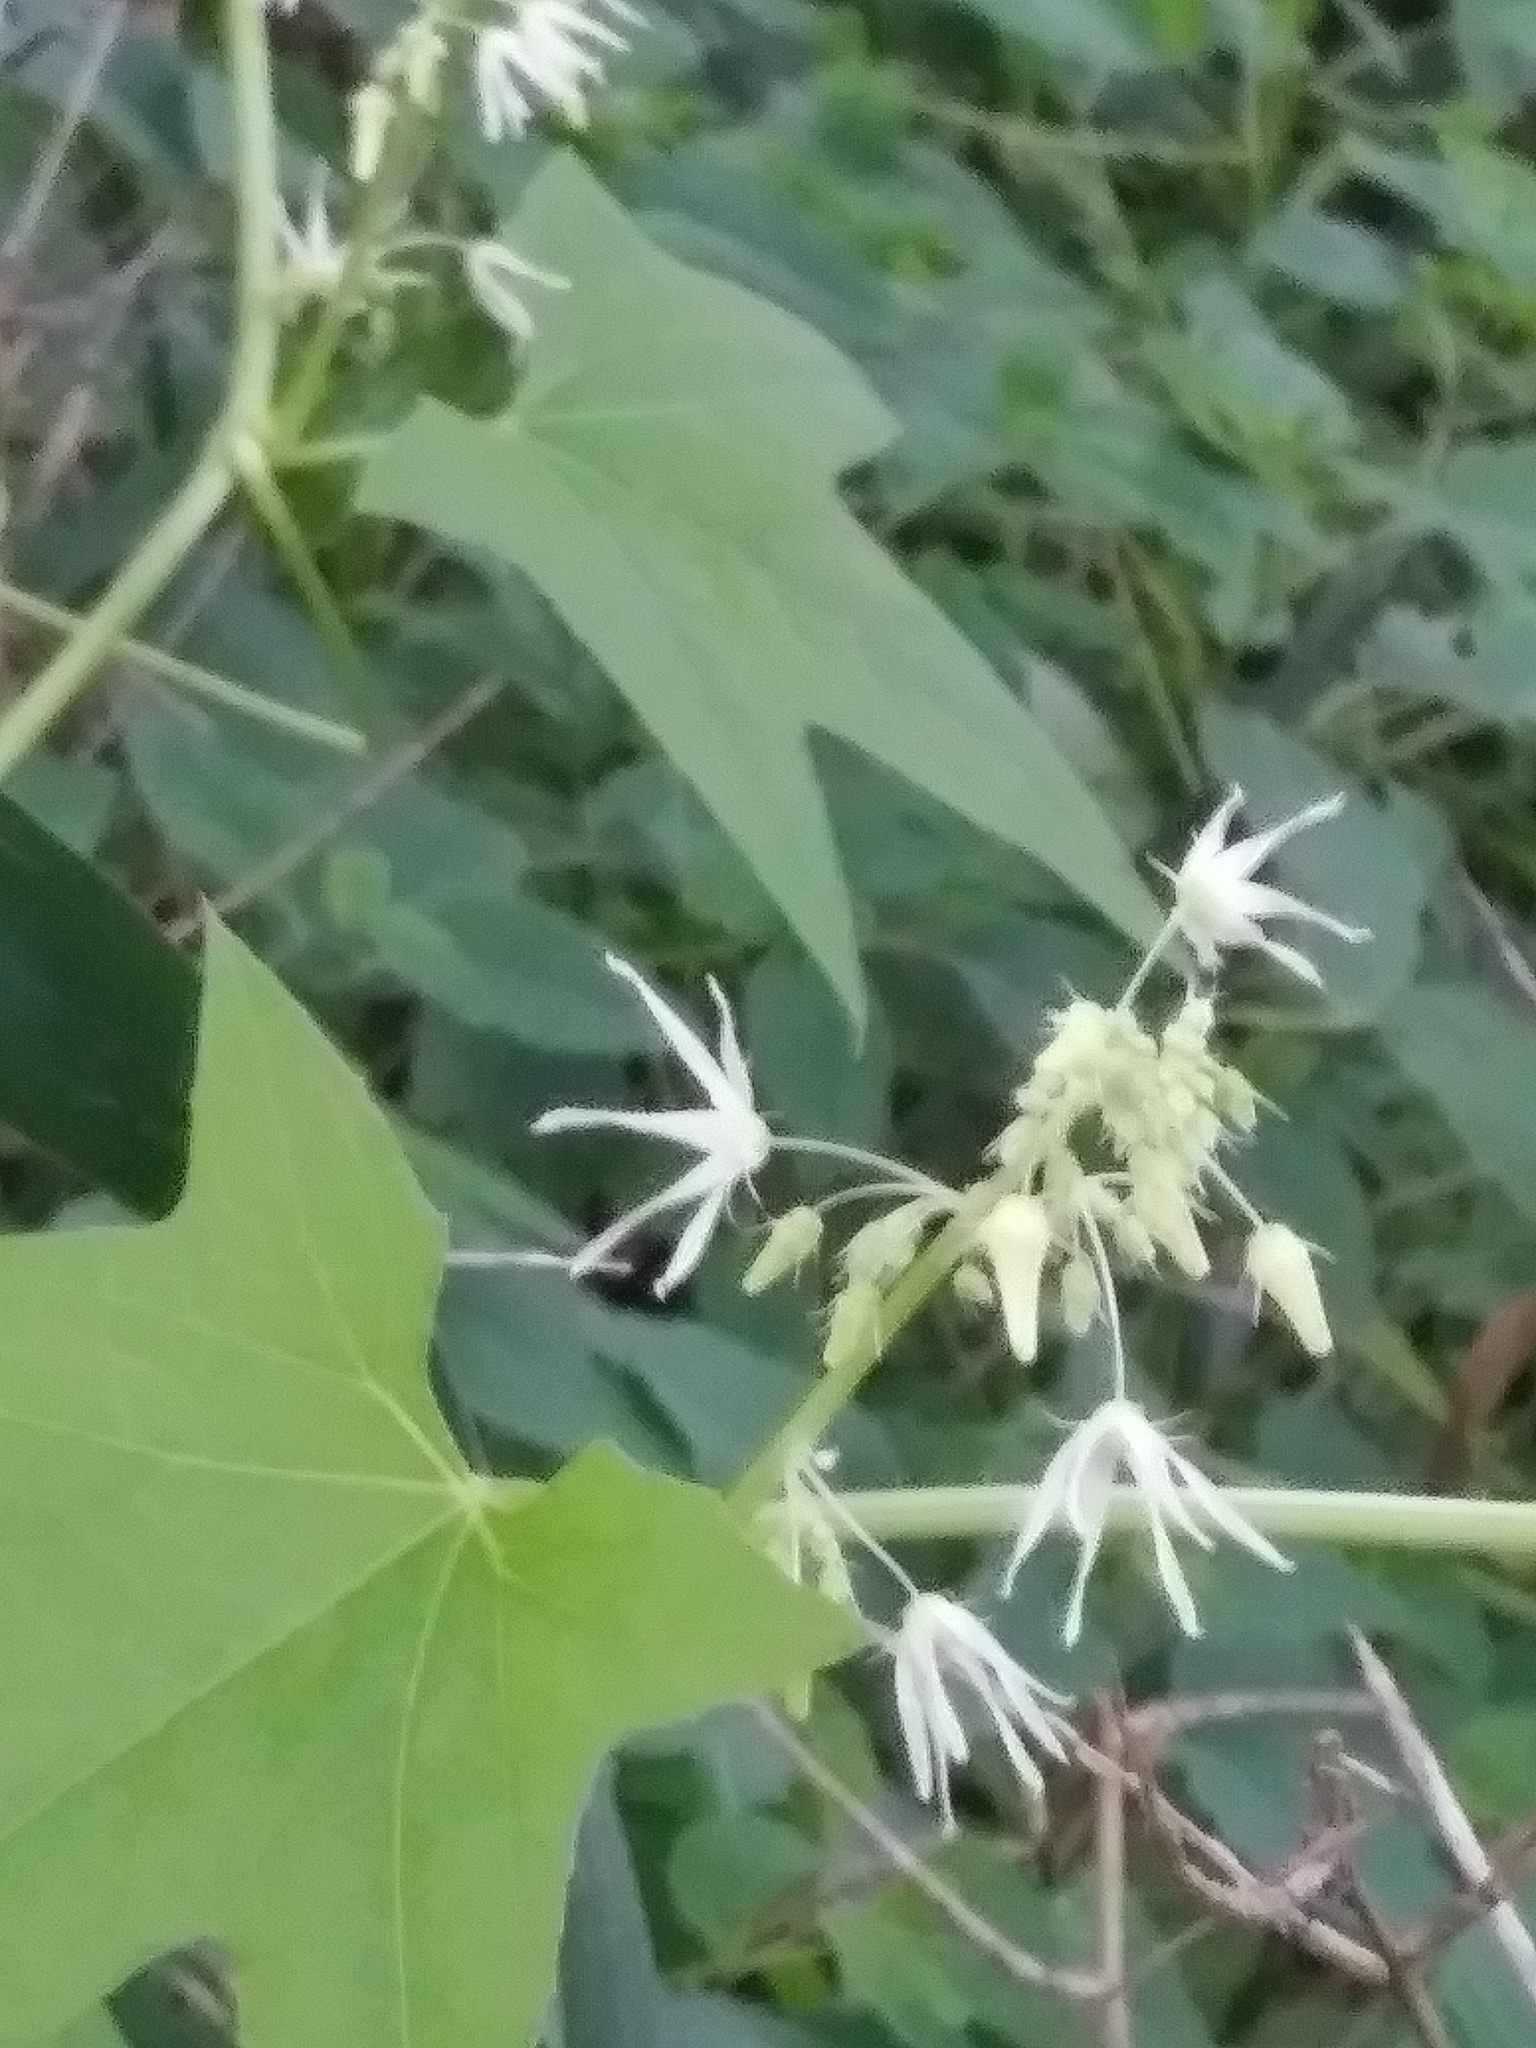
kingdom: Plantae
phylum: Tracheophyta
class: Magnoliopsida
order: Cucurbitales
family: Cucurbitaceae
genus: Echinocystis
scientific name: Echinocystis lobata
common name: Wild cucumber
